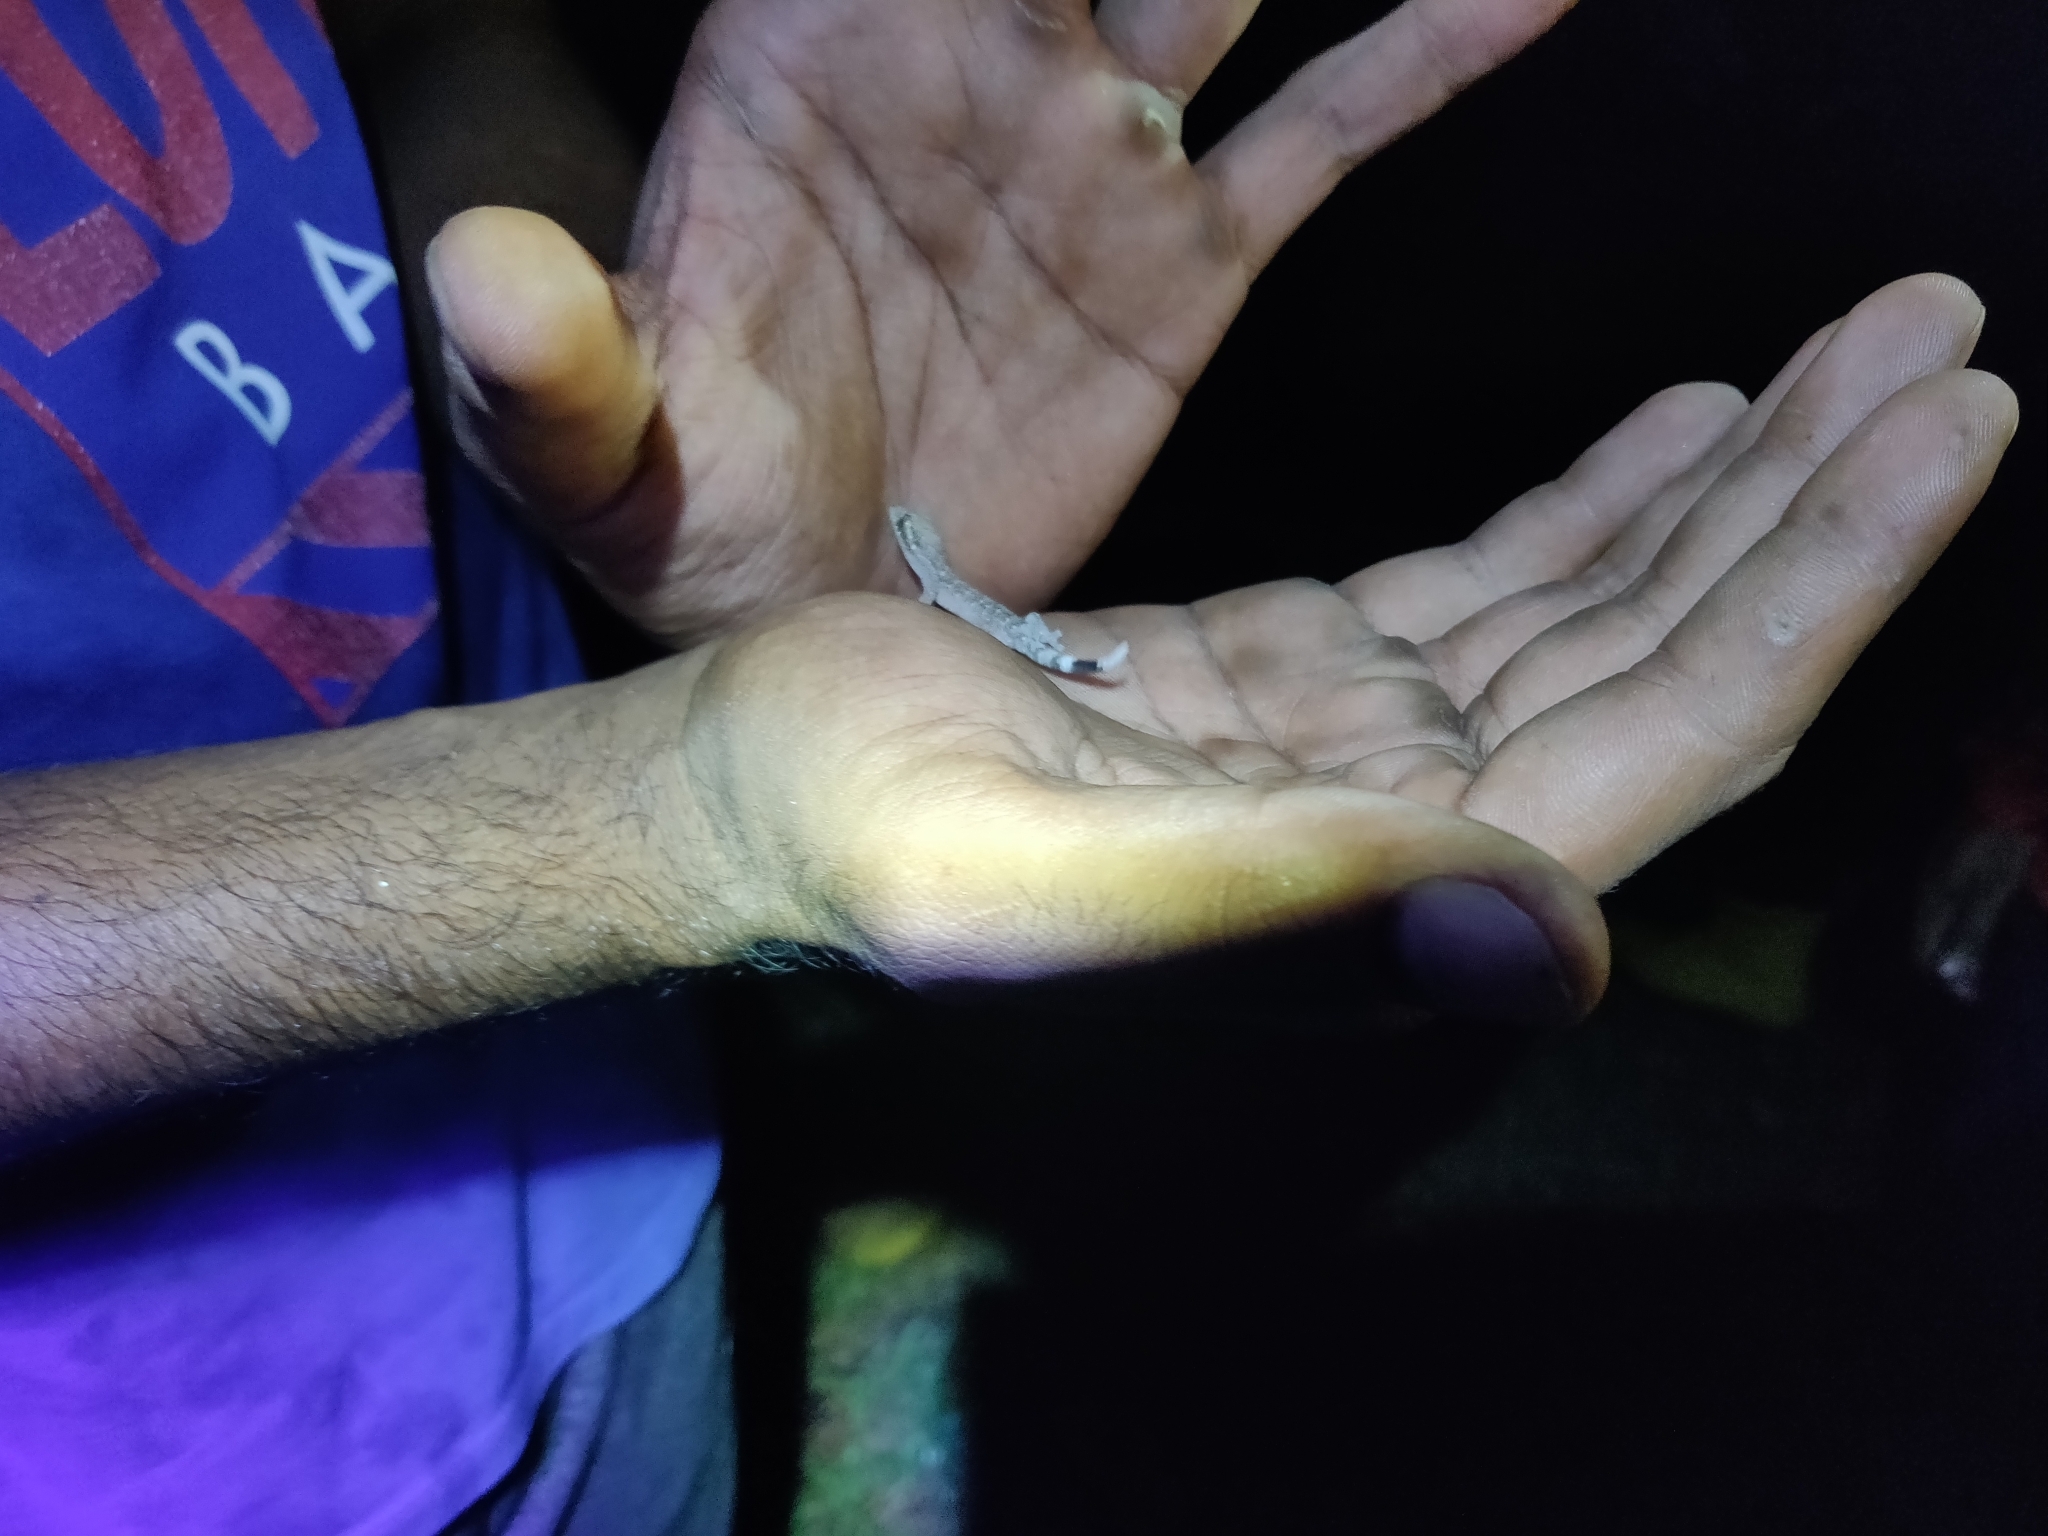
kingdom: Animalia
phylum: Chordata
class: Squamata
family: Phyllodactylidae
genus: Thecadactylus
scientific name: Thecadactylus rapicauda
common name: Turnip-tailed gecko
